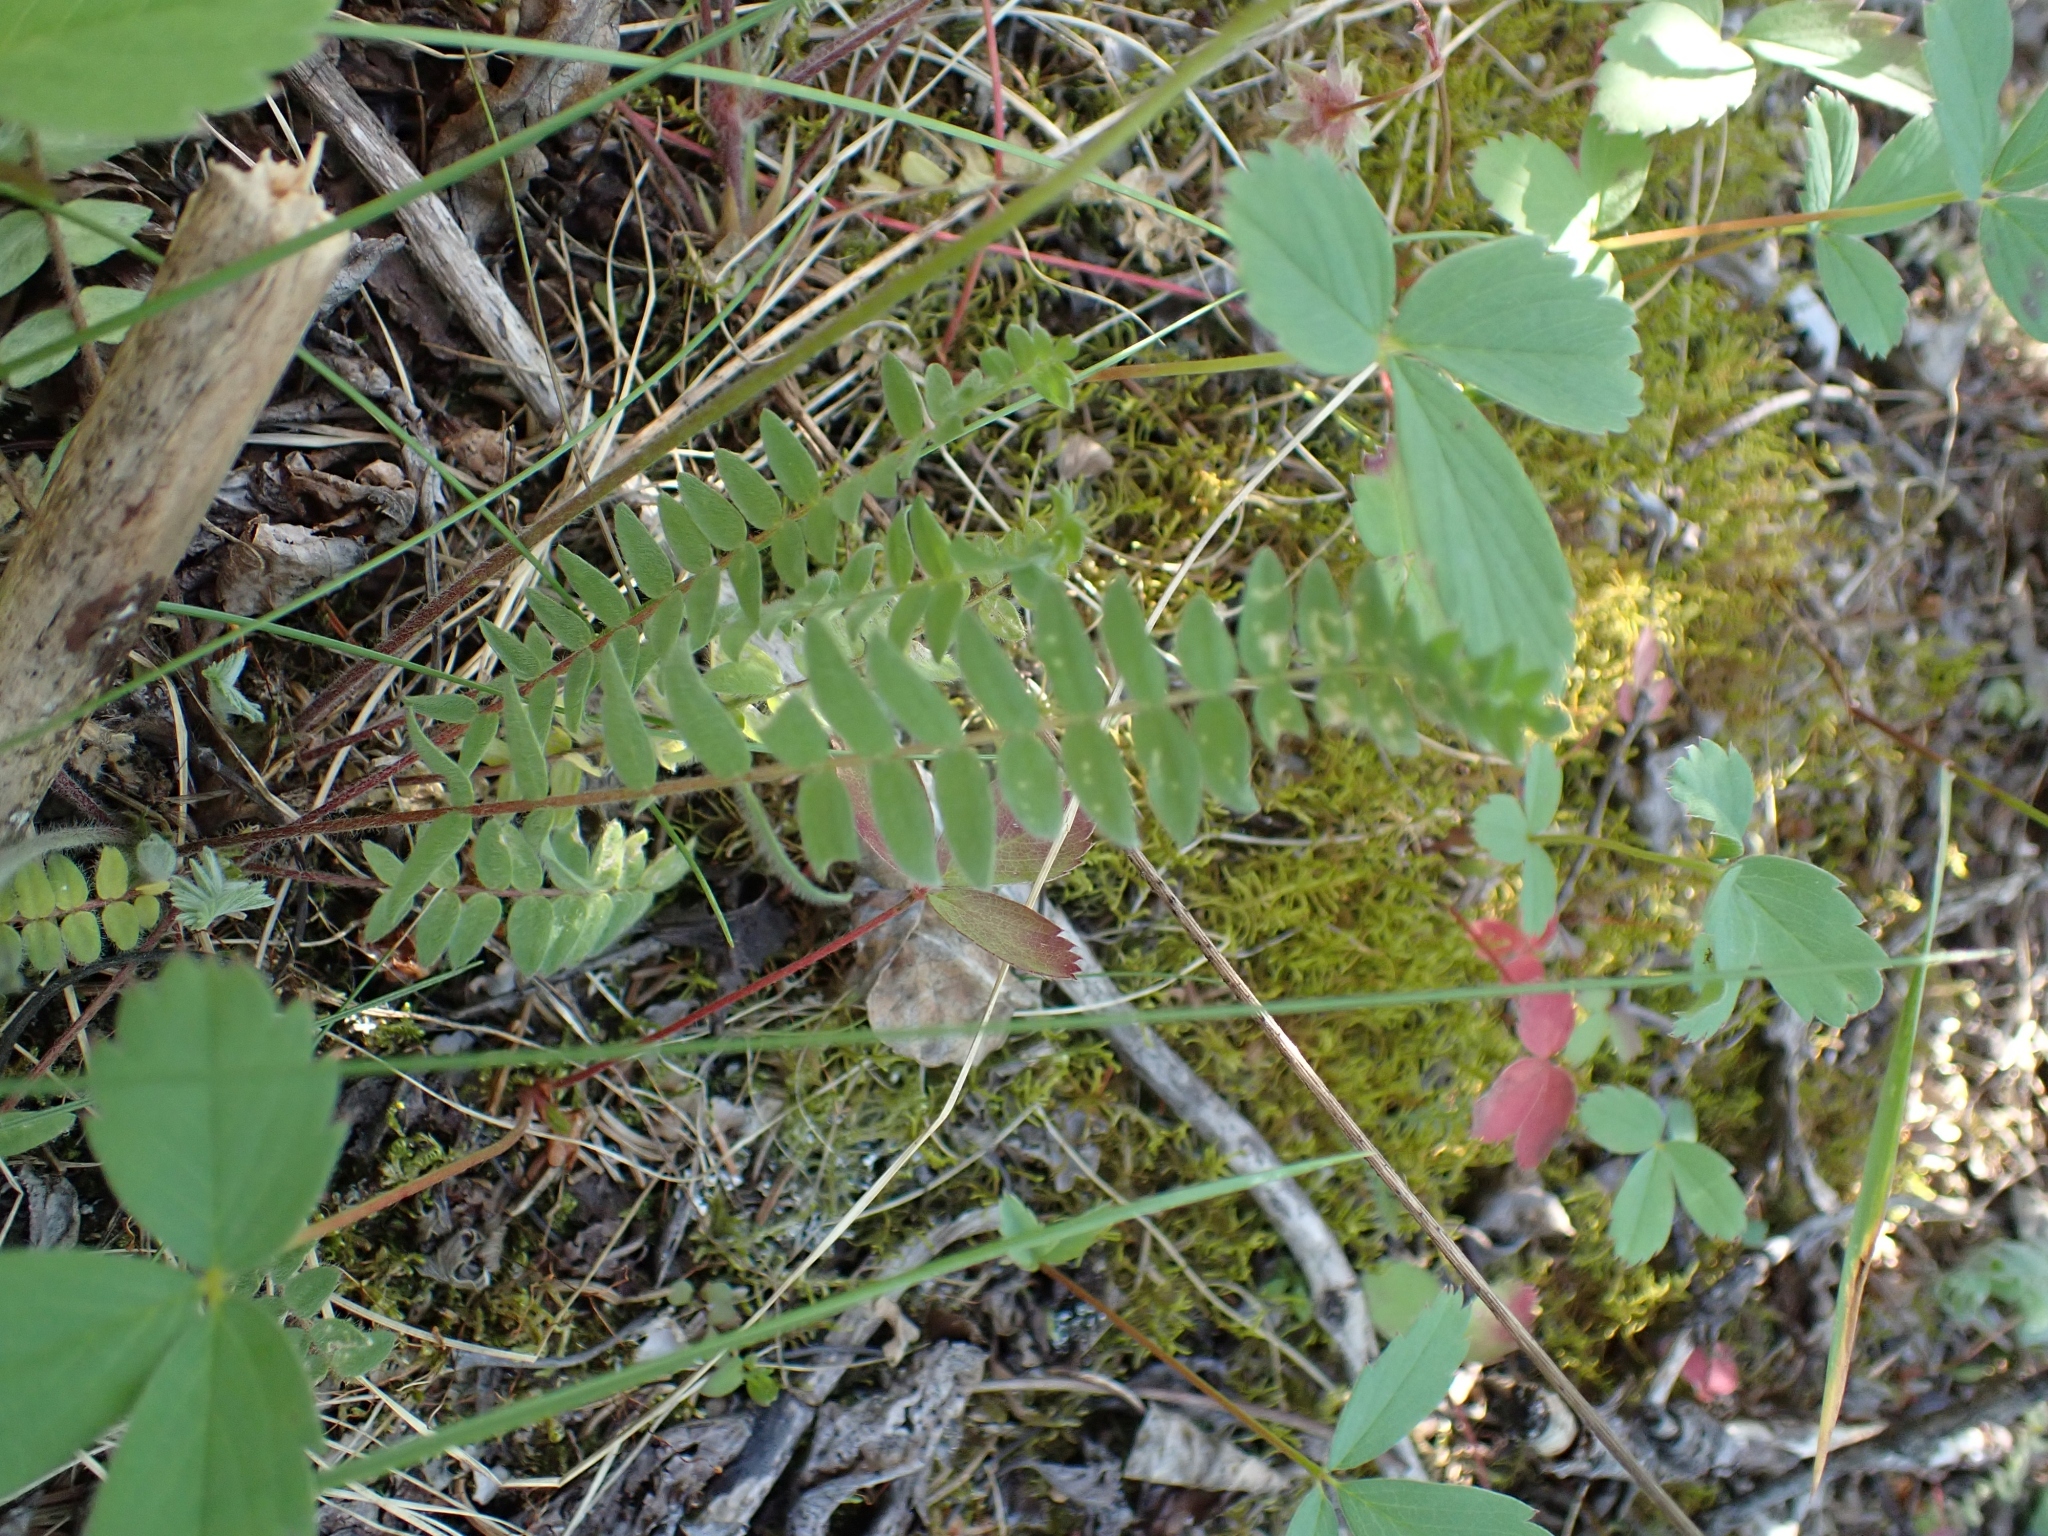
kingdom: Plantae
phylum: Tracheophyta
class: Magnoliopsida
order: Fabales
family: Fabaceae
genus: Oxytropis
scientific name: Oxytropis deflexa
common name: Stemmed oxytrope
